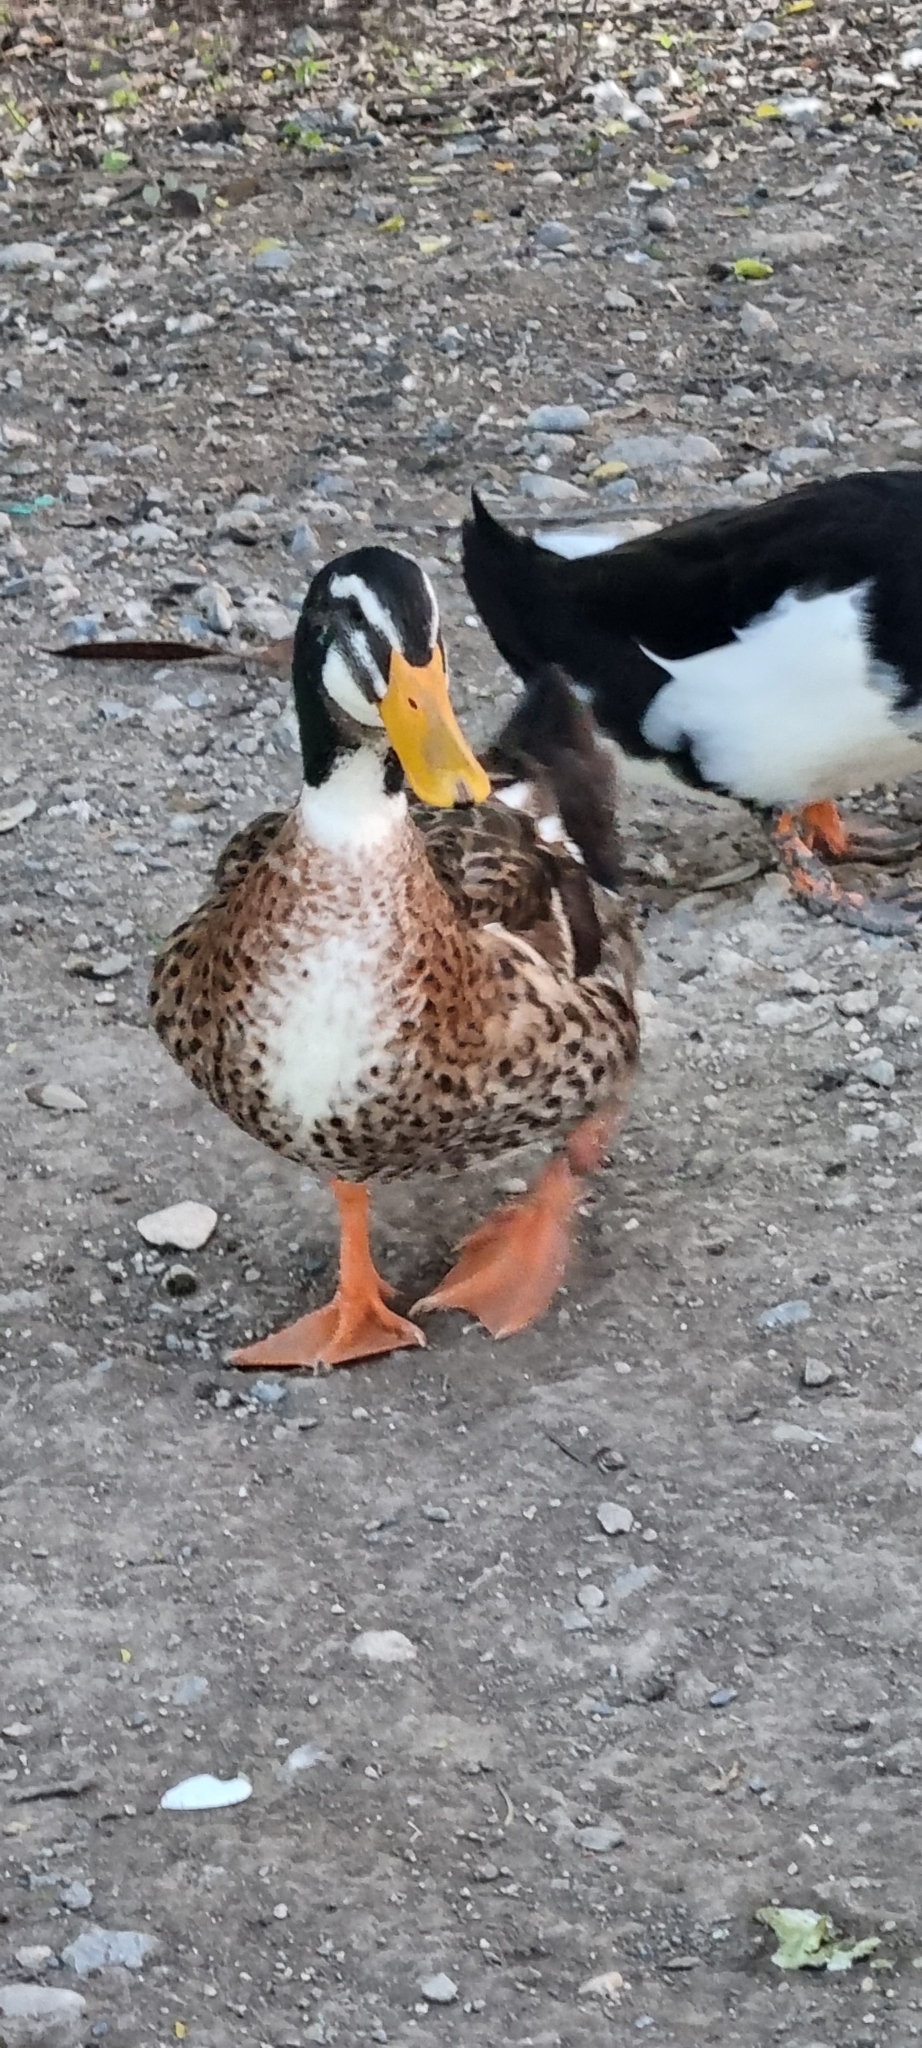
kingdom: Animalia
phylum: Chordata
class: Aves
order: Anseriformes
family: Anatidae
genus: Anas
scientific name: Anas platyrhynchos
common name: Mallard
